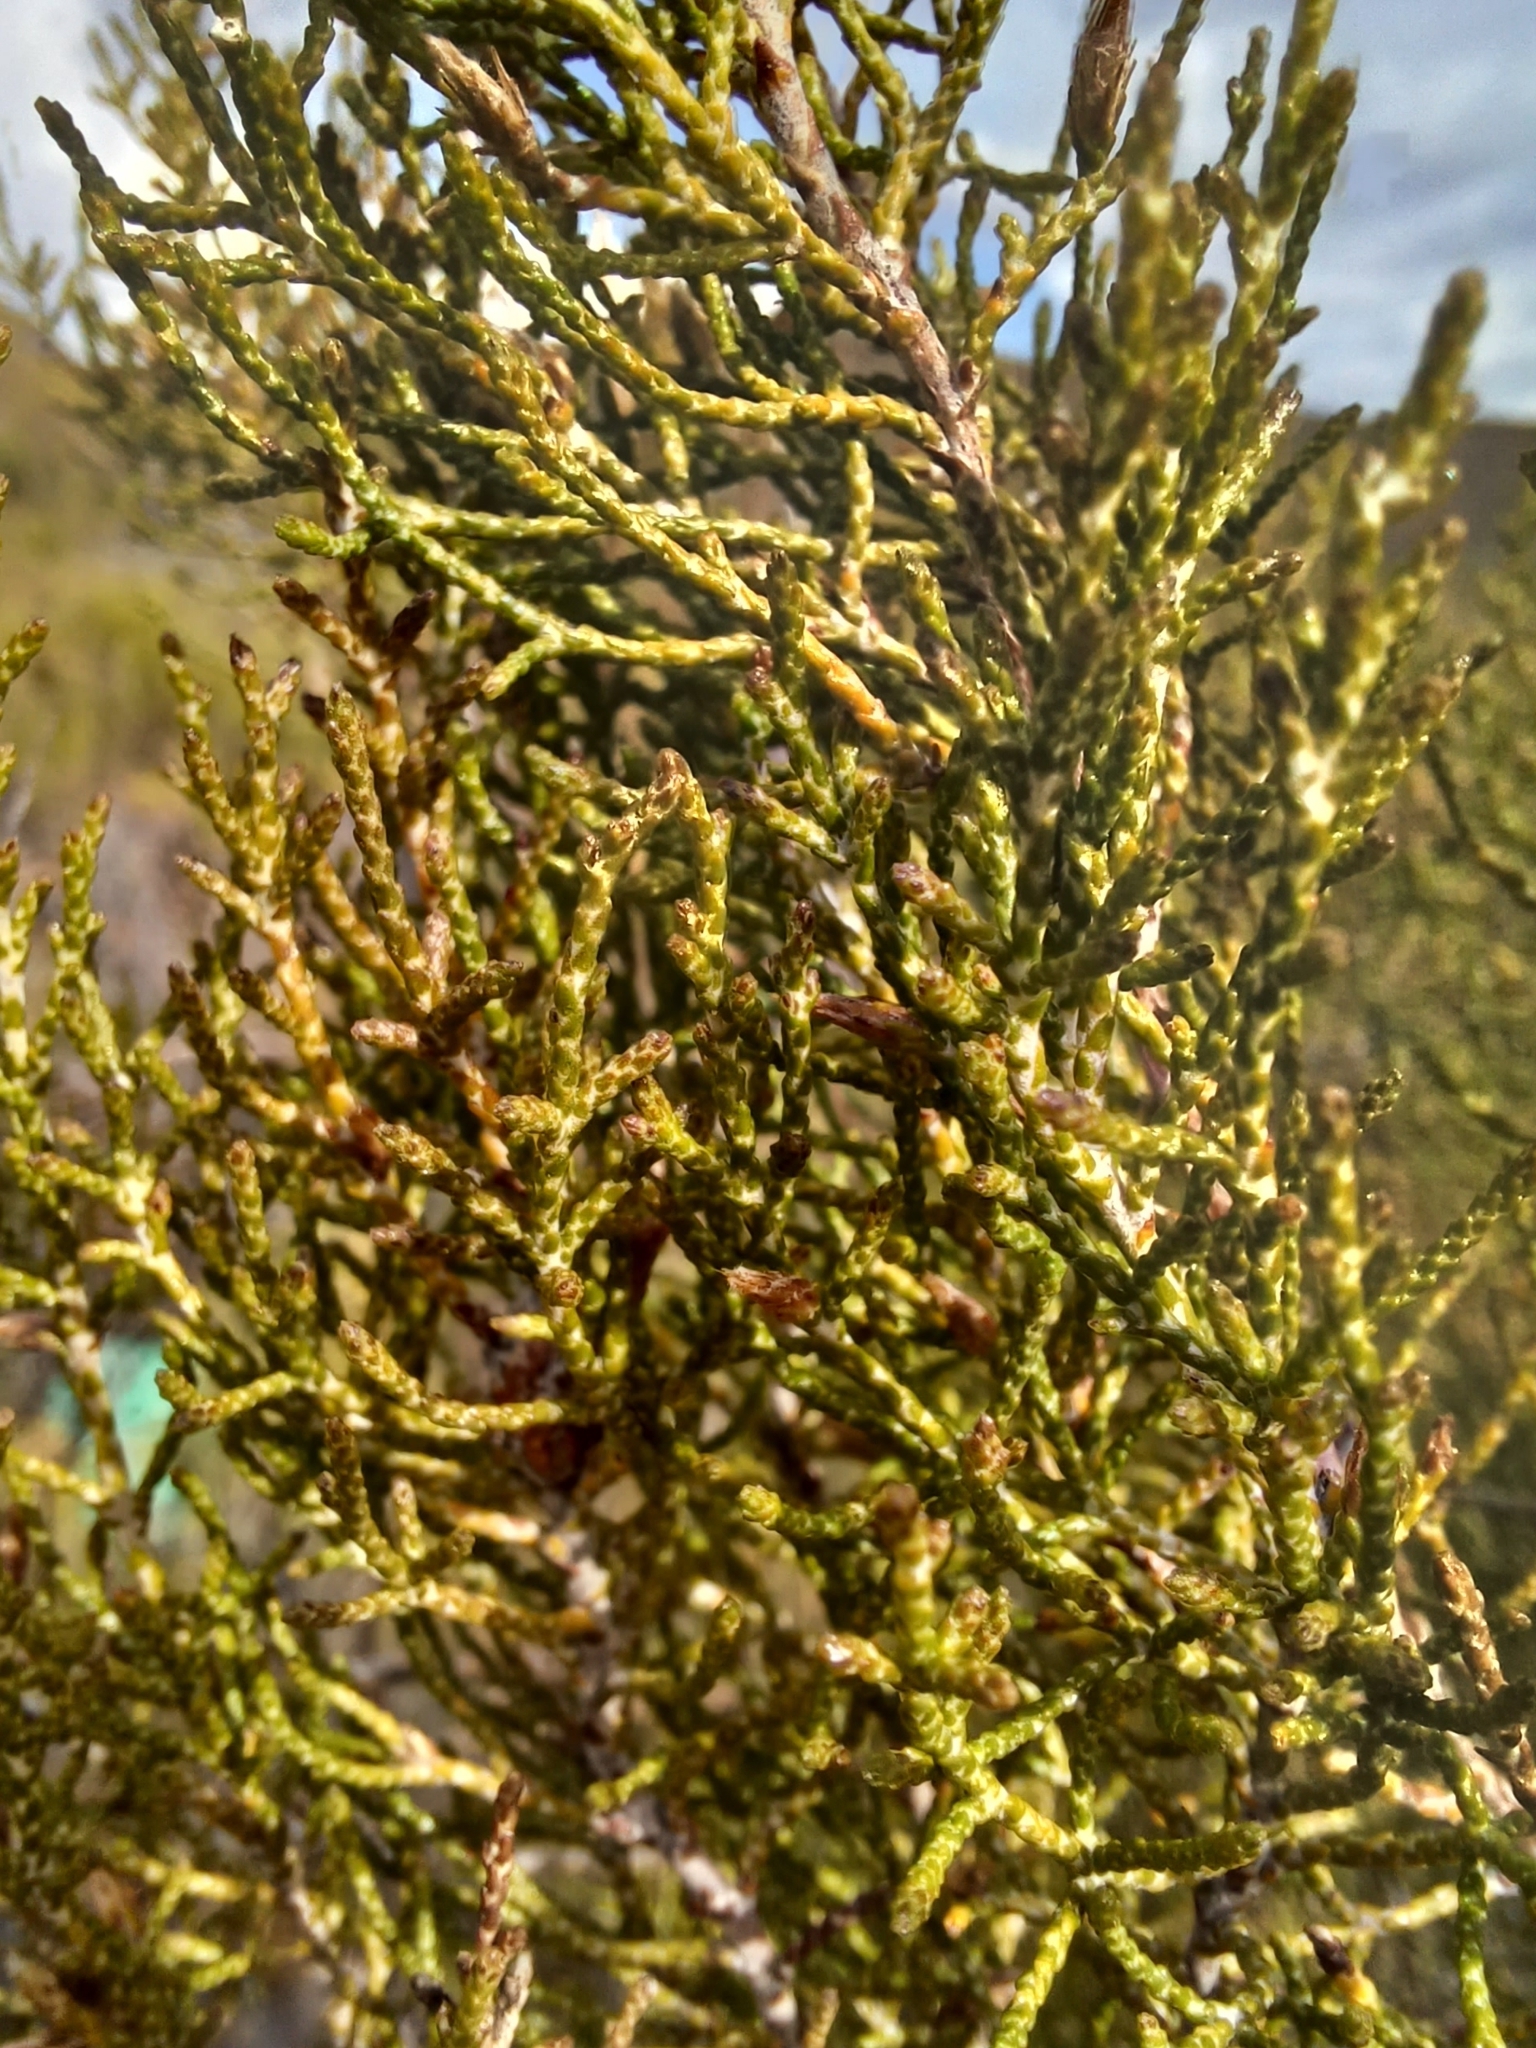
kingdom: Plantae
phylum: Tracheophyta
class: Magnoliopsida
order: Asterales
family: Asteraceae
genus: Dicerothamnus
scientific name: Dicerothamnus rhinocerotis
